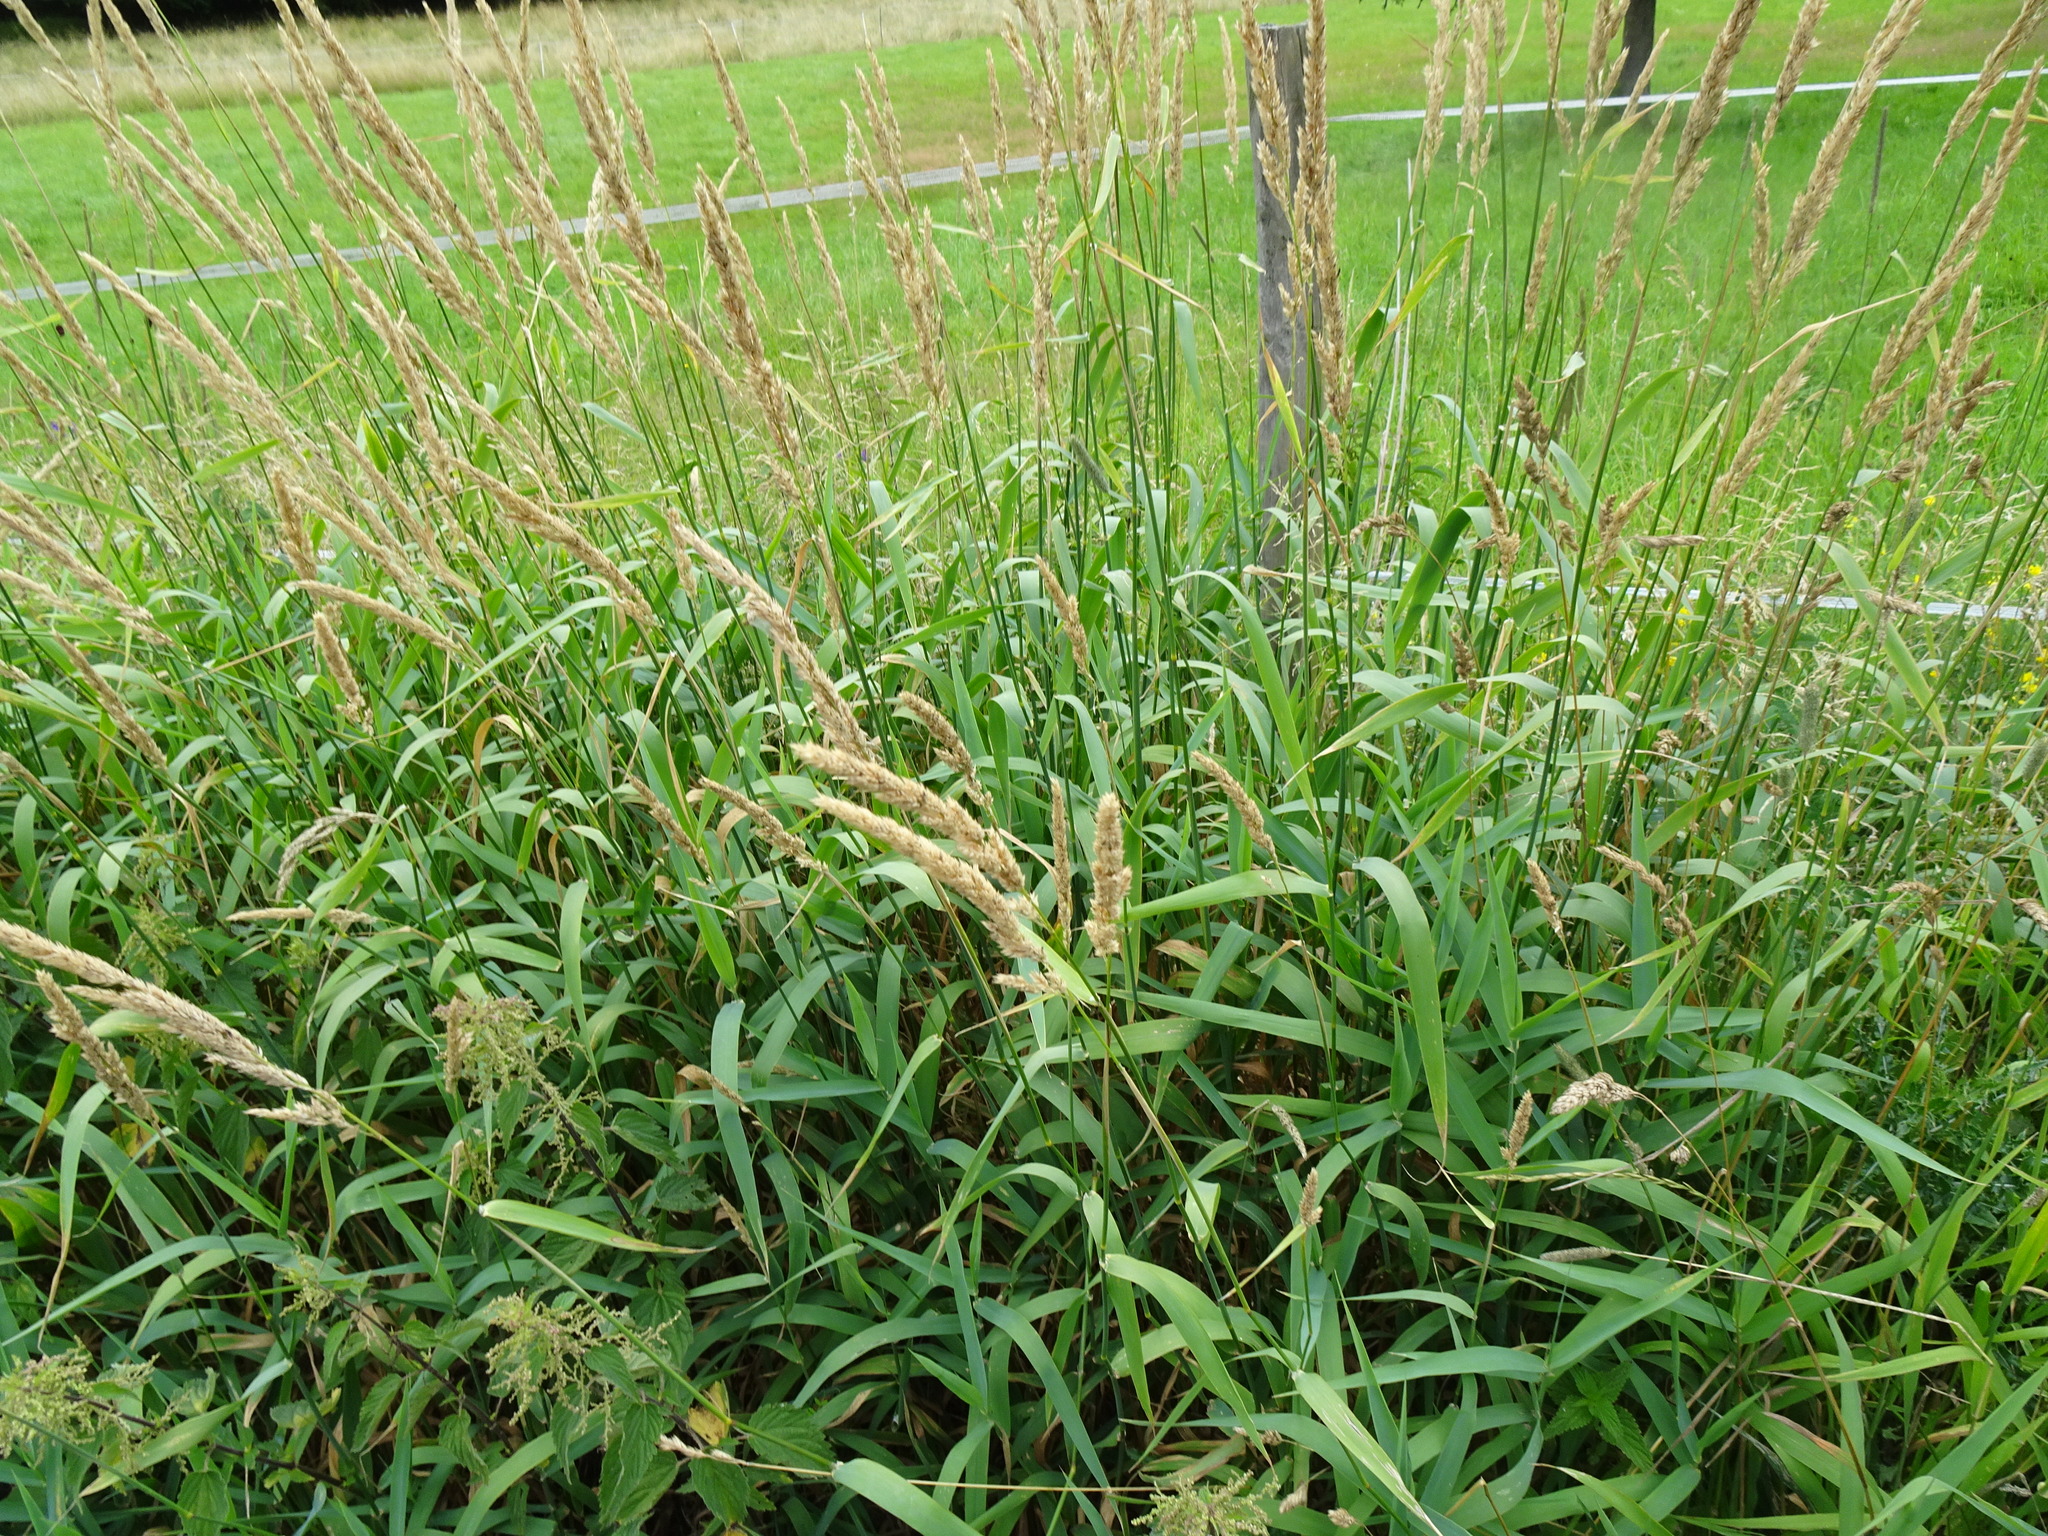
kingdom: Plantae
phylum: Tracheophyta
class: Liliopsida
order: Poales
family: Poaceae
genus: Phalaris
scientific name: Phalaris arundinacea
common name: Reed canary-grass
